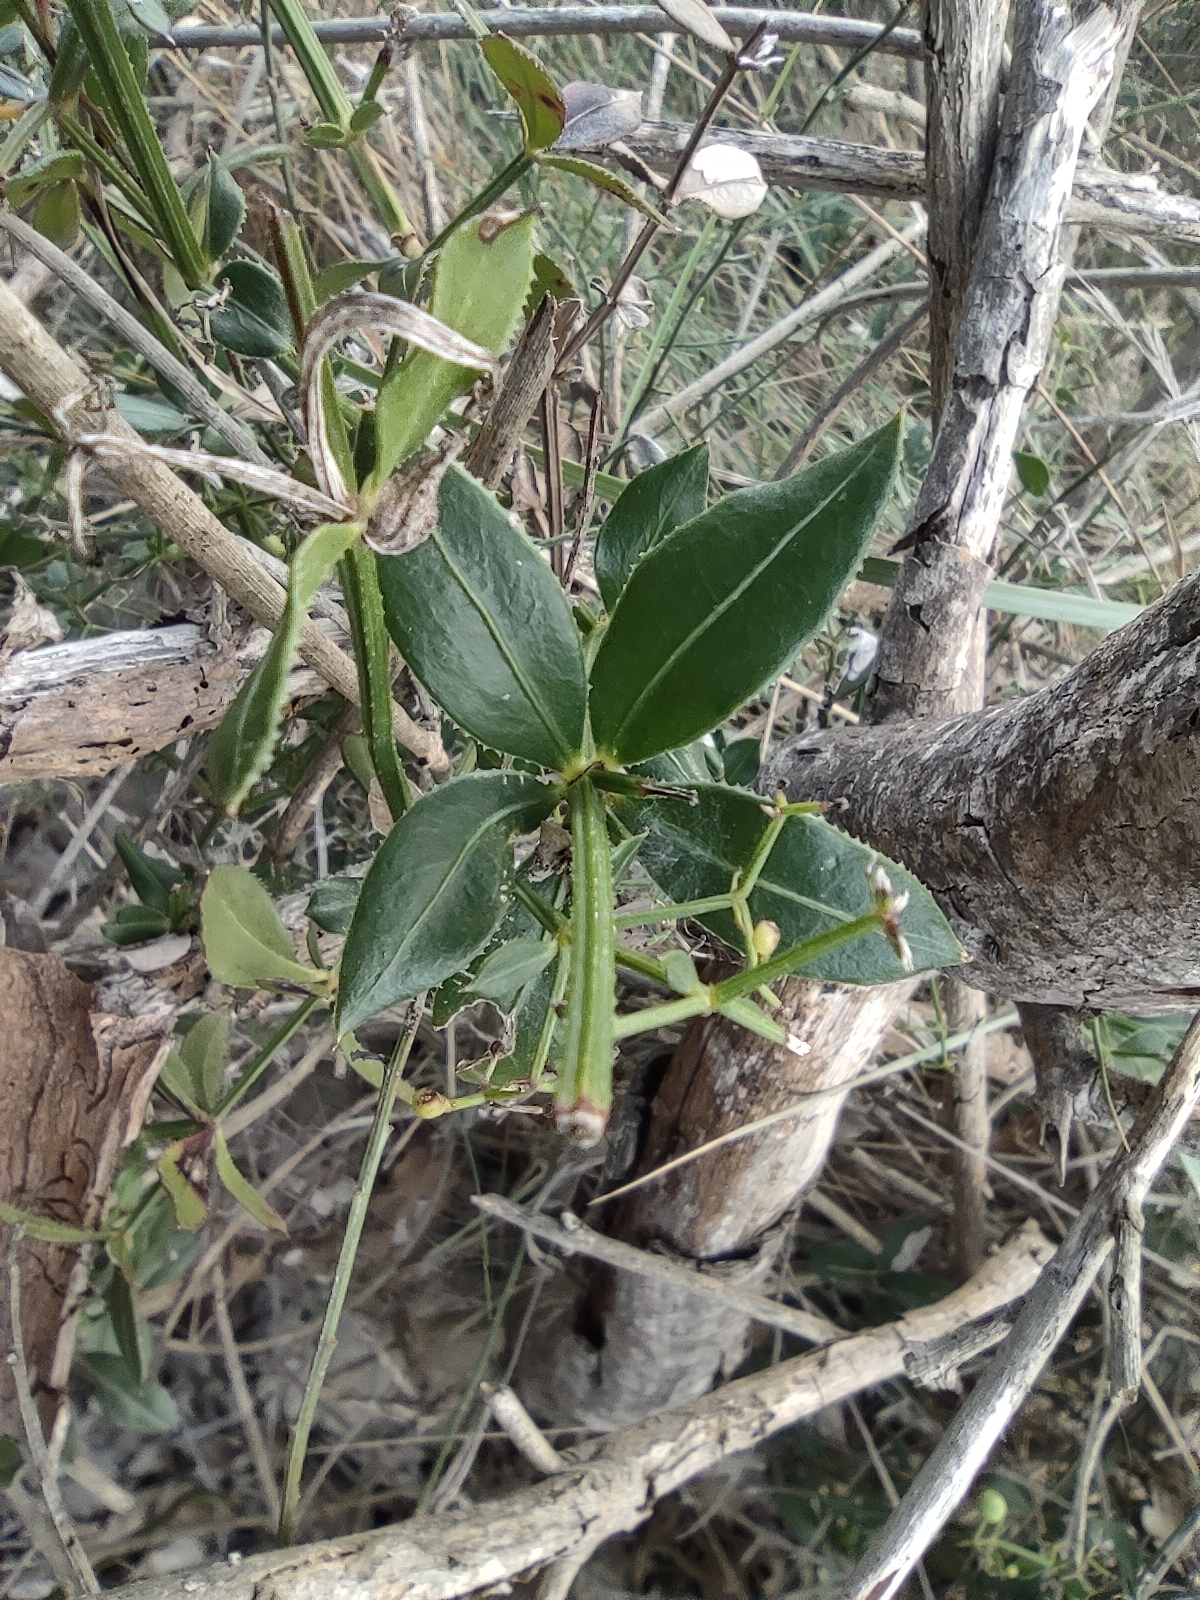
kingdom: Plantae
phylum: Tracheophyta
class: Magnoliopsida
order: Gentianales
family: Rubiaceae
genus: Rubia
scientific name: Rubia peregrina
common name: Wild madder
